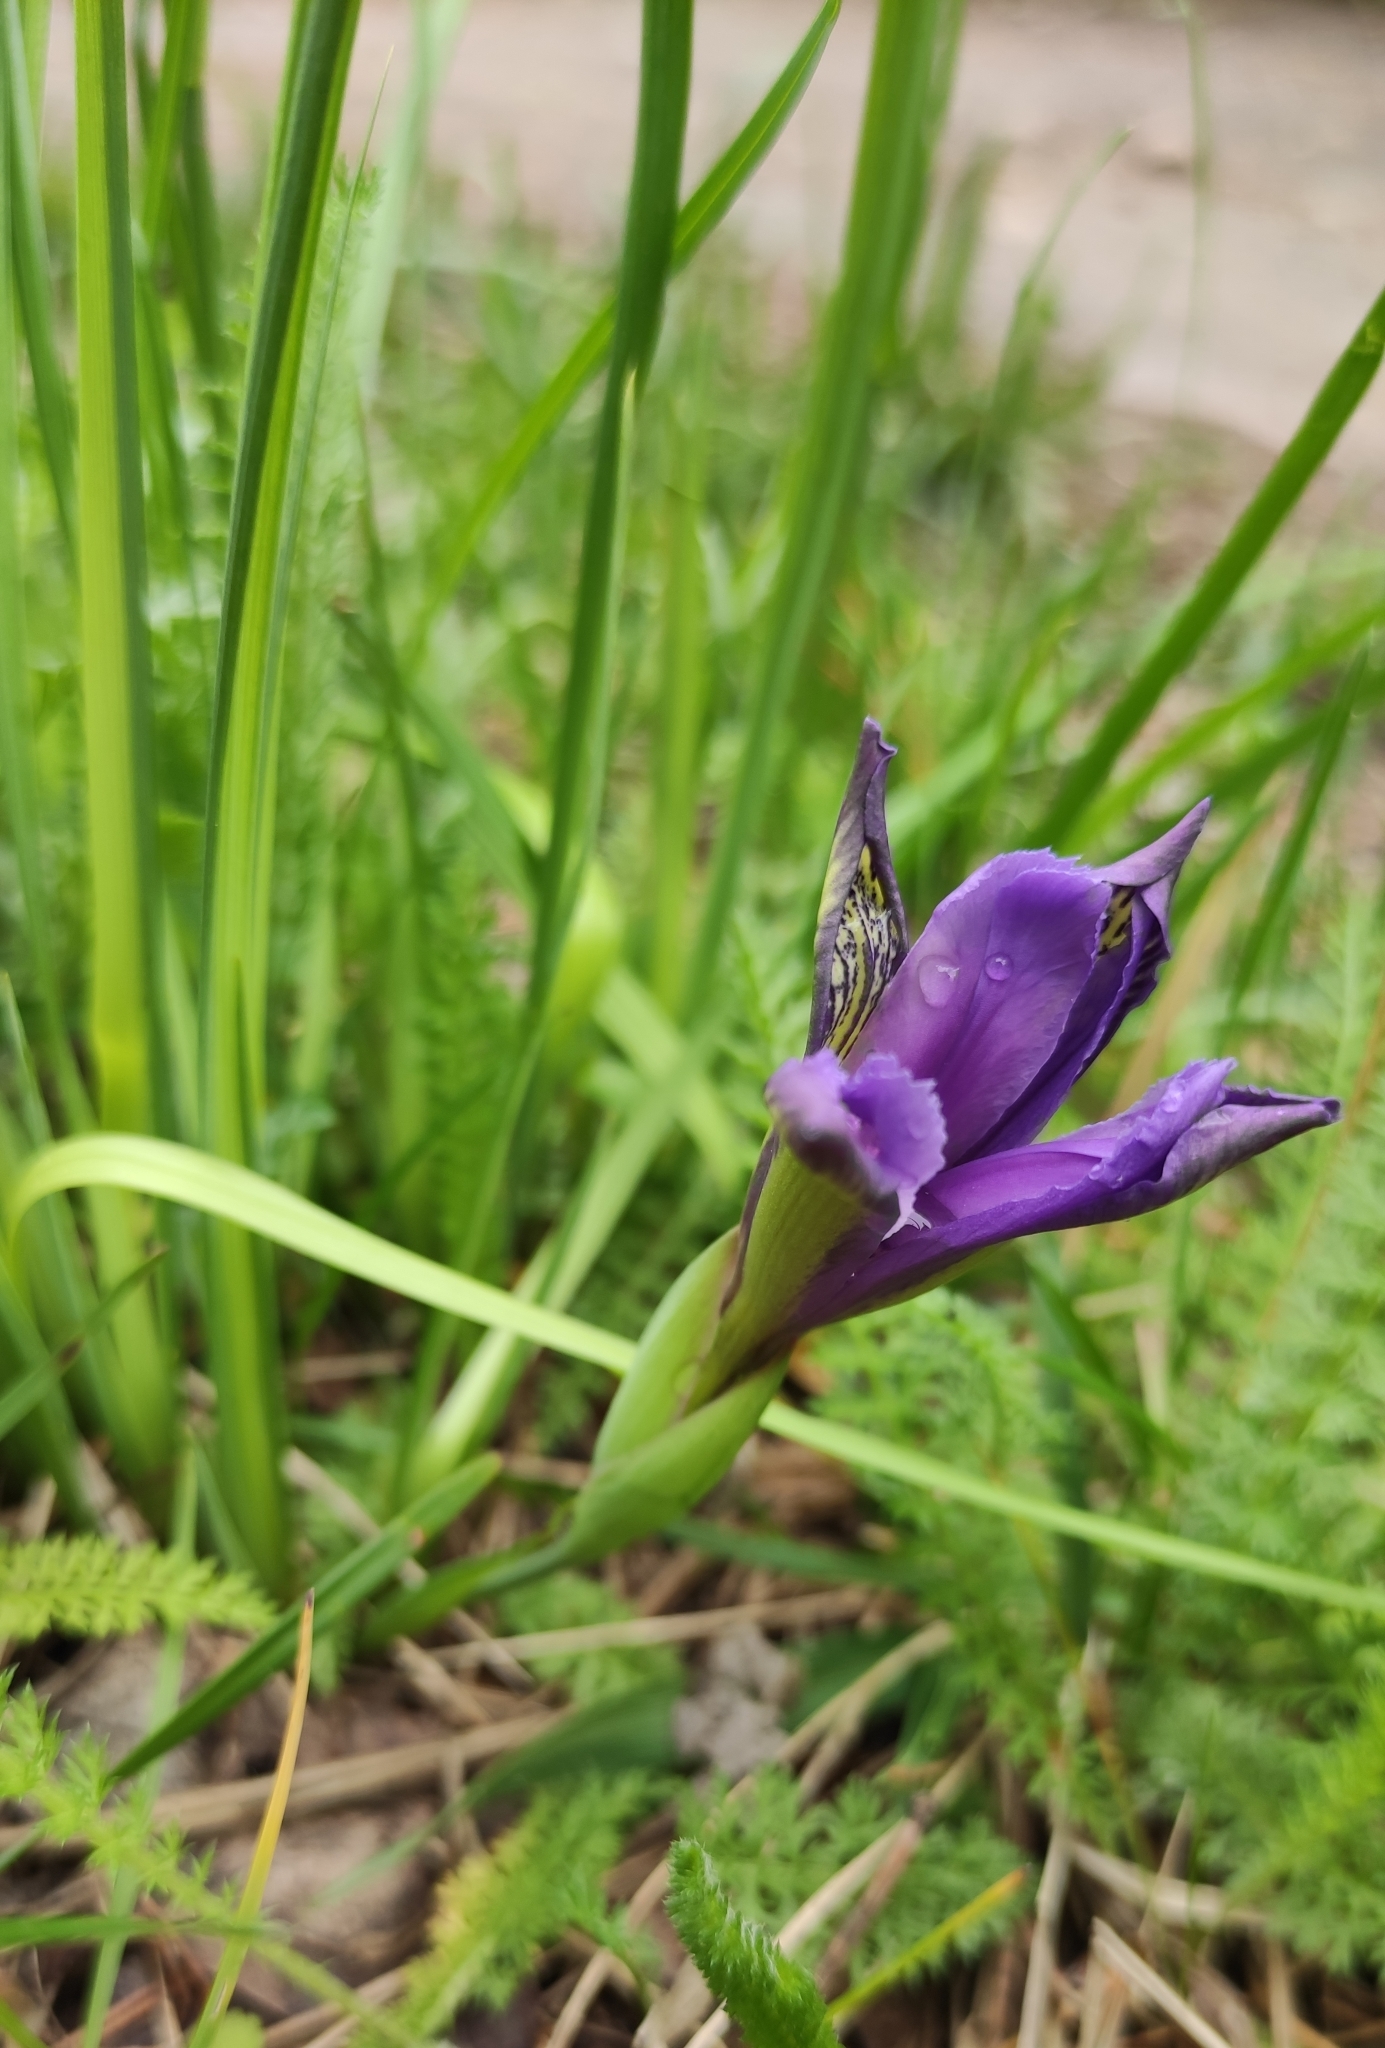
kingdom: Plantae
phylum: Tracheophyta
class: Liliopsida
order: Asparagales
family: Iridaceae
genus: Iris
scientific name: Iris ruthenica
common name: Purple-bract iris
